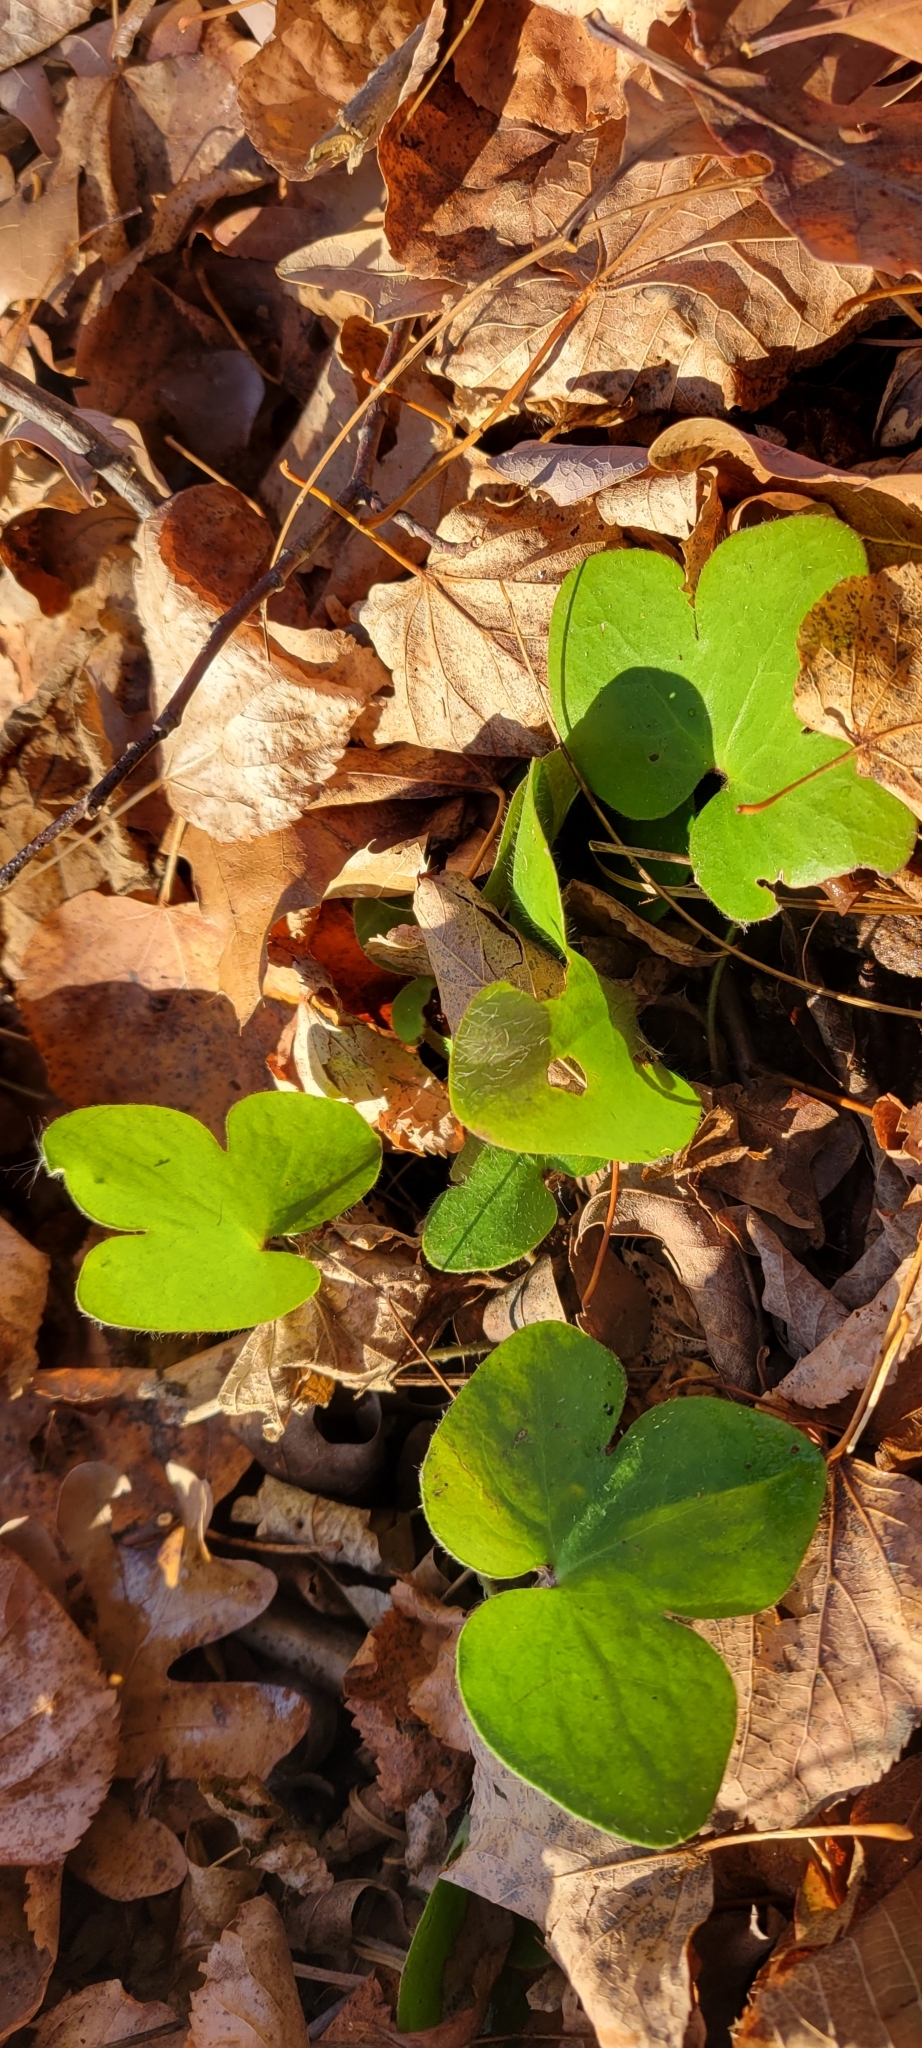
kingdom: Plantae
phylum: Tracheophyta
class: Magnoliopsida
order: Ranunculales
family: Ranunculaceae
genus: Hepatica
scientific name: Hepatica americana
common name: American hepatica
